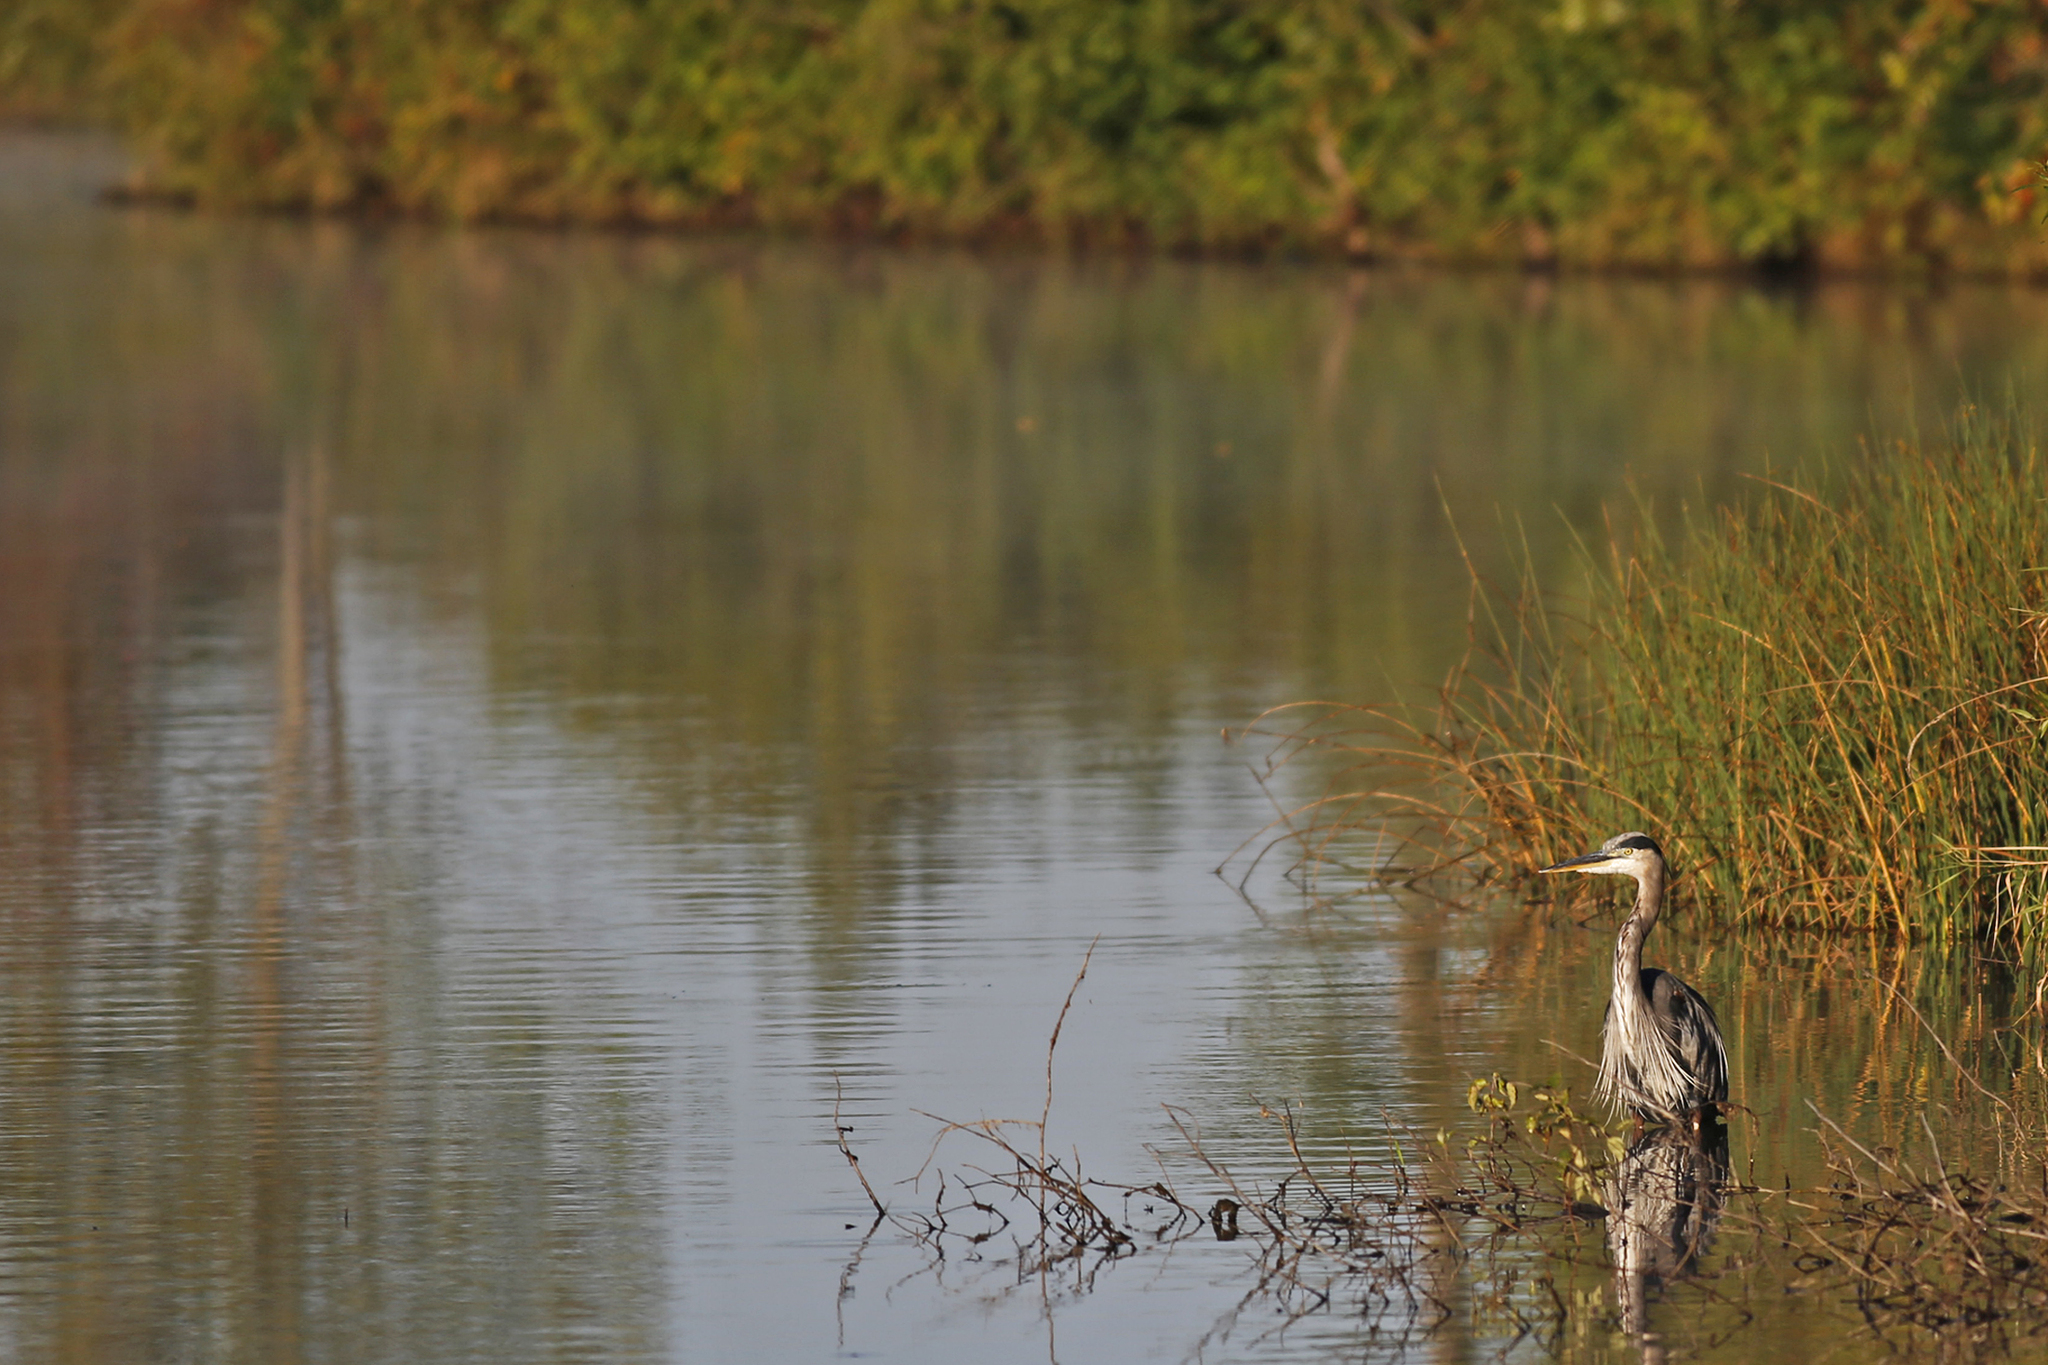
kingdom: Animalia
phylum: Chordata
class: Aves
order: Pelecaniformes
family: Ardeidae
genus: Ardea
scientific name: Ardea herodias
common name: Great blue heron
